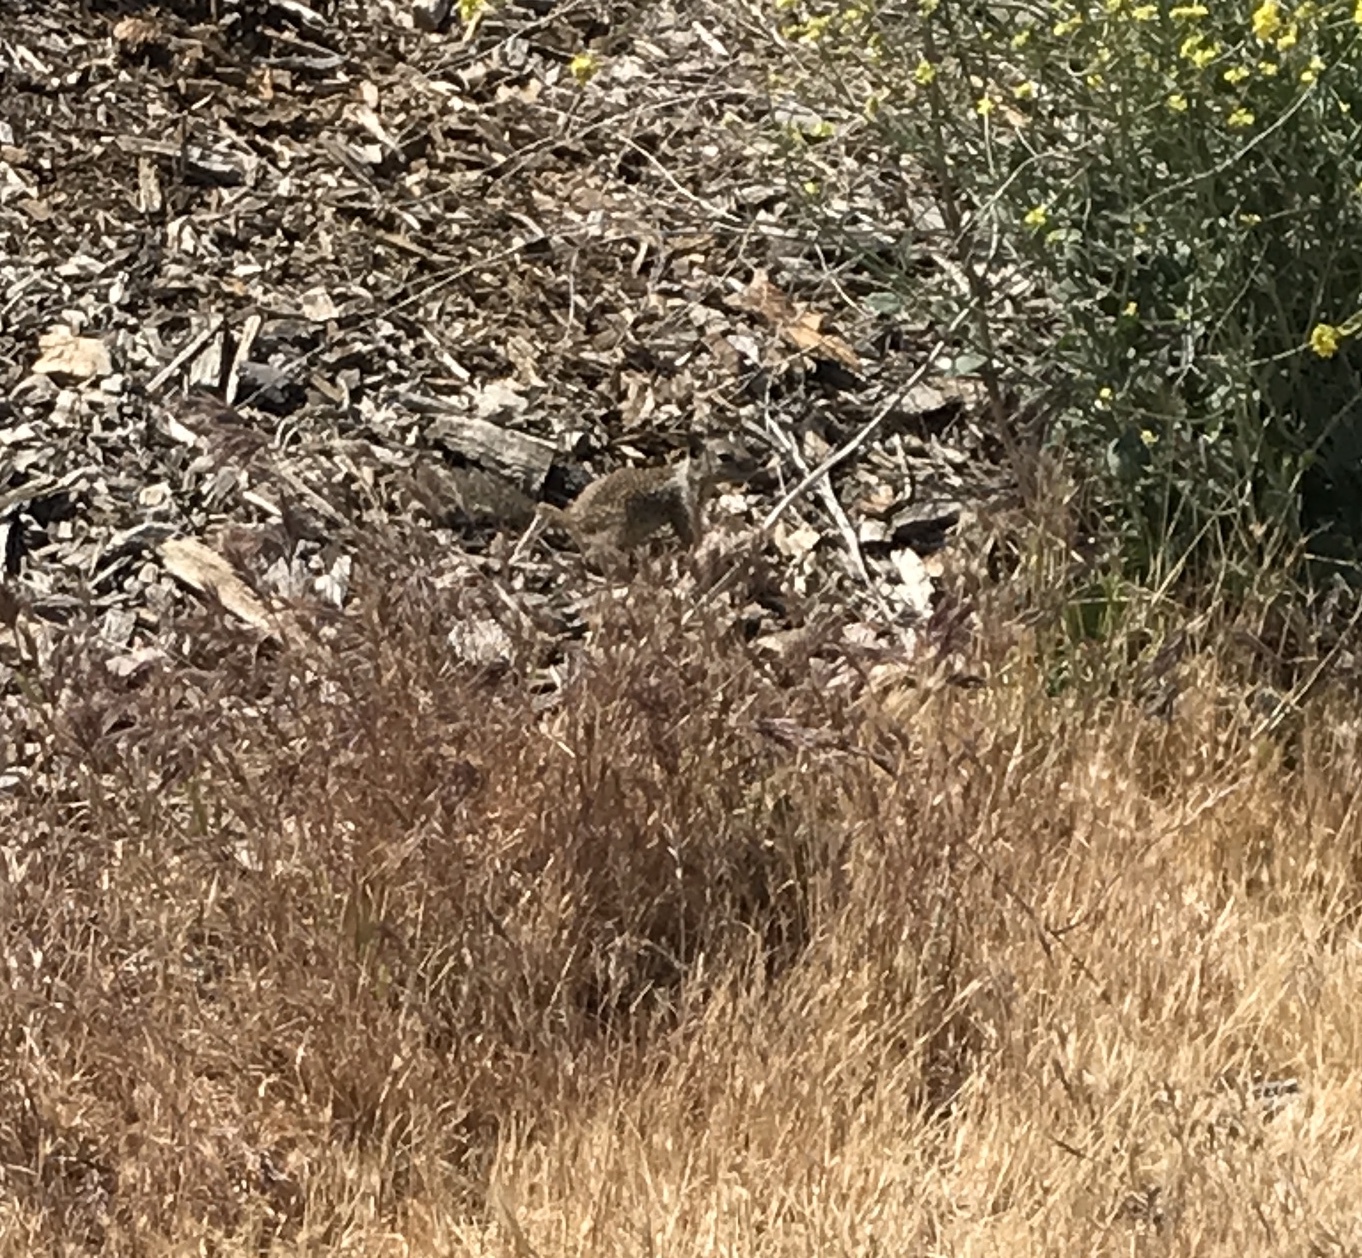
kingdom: Animalia
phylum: Chordata
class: Mammalia
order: Rodentia
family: Sciuridae
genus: Otospermophilus
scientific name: Otospermophilus beecheyi
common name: California ground squirrel
